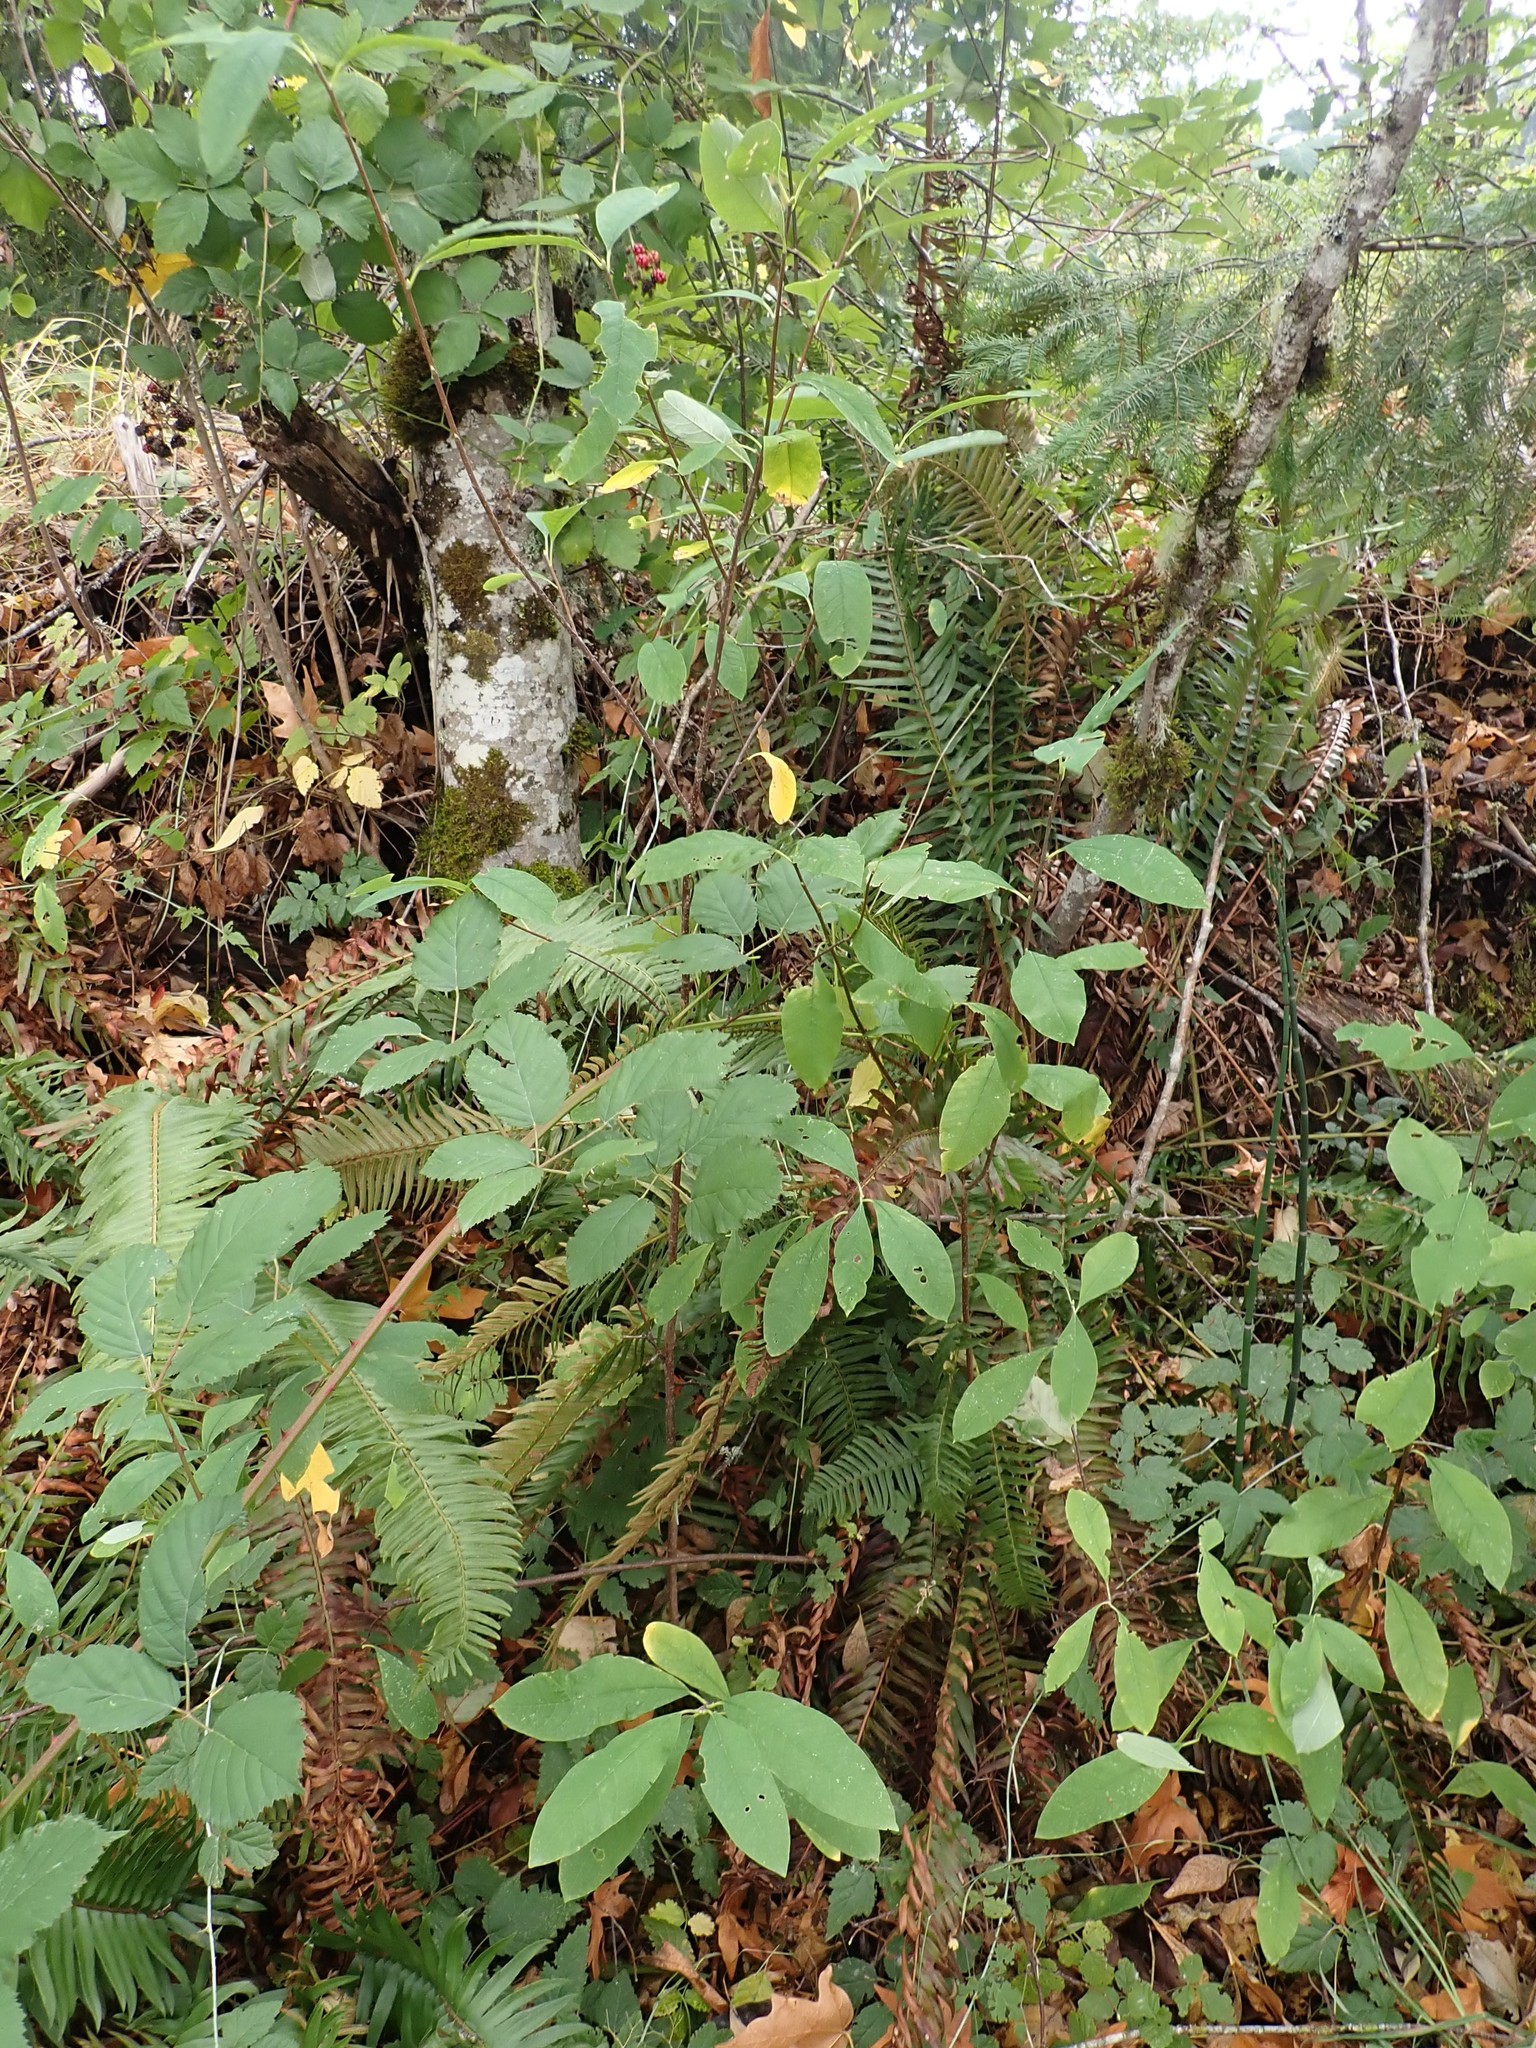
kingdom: Plantae
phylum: Tracheophyta
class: Magnoliopsida
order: Rosales
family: Rosaceae
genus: Oemleria
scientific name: Oemleria cerasiformis
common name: Osoberry
